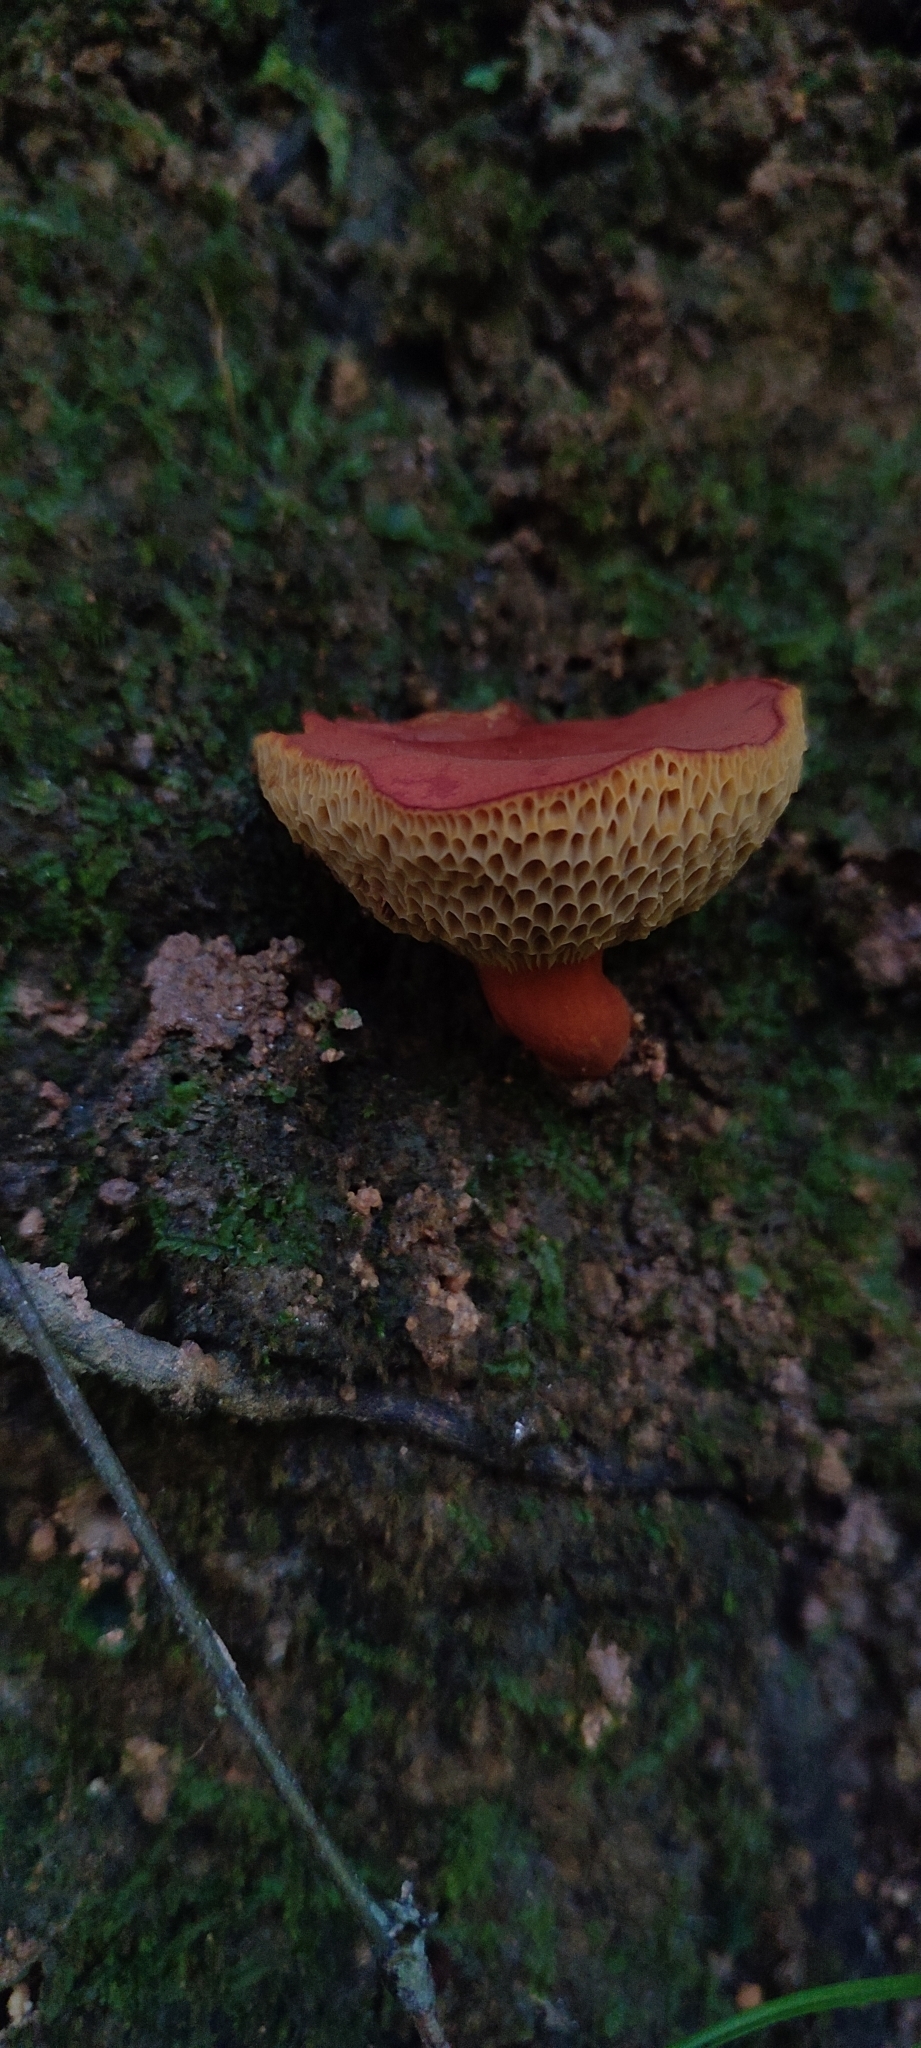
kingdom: Fungi
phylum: Basidiomycota
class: Agaricomycetes
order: Boletales
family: Boletaceae
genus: Boletellus
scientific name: Boletellus obscurecoccineus
